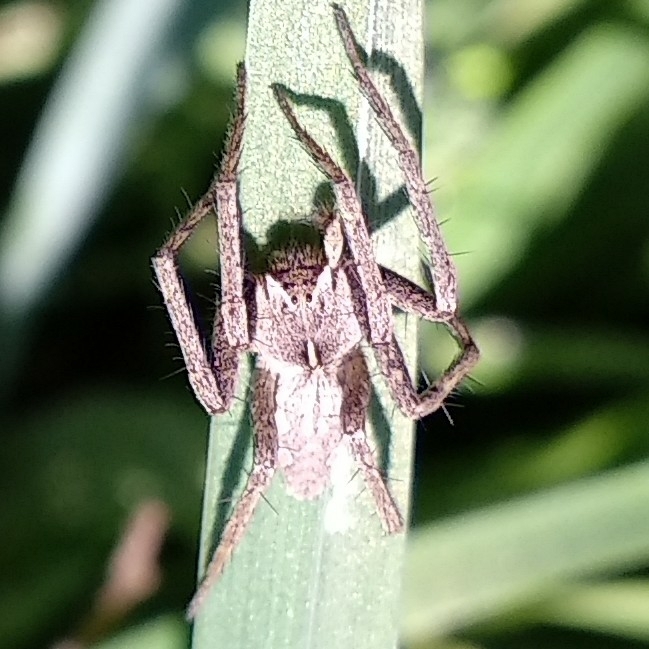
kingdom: Animalia
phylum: Arthropoda
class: Arachnida
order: Araneae
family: Pisauridae
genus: Pisaura
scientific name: Pisaura
